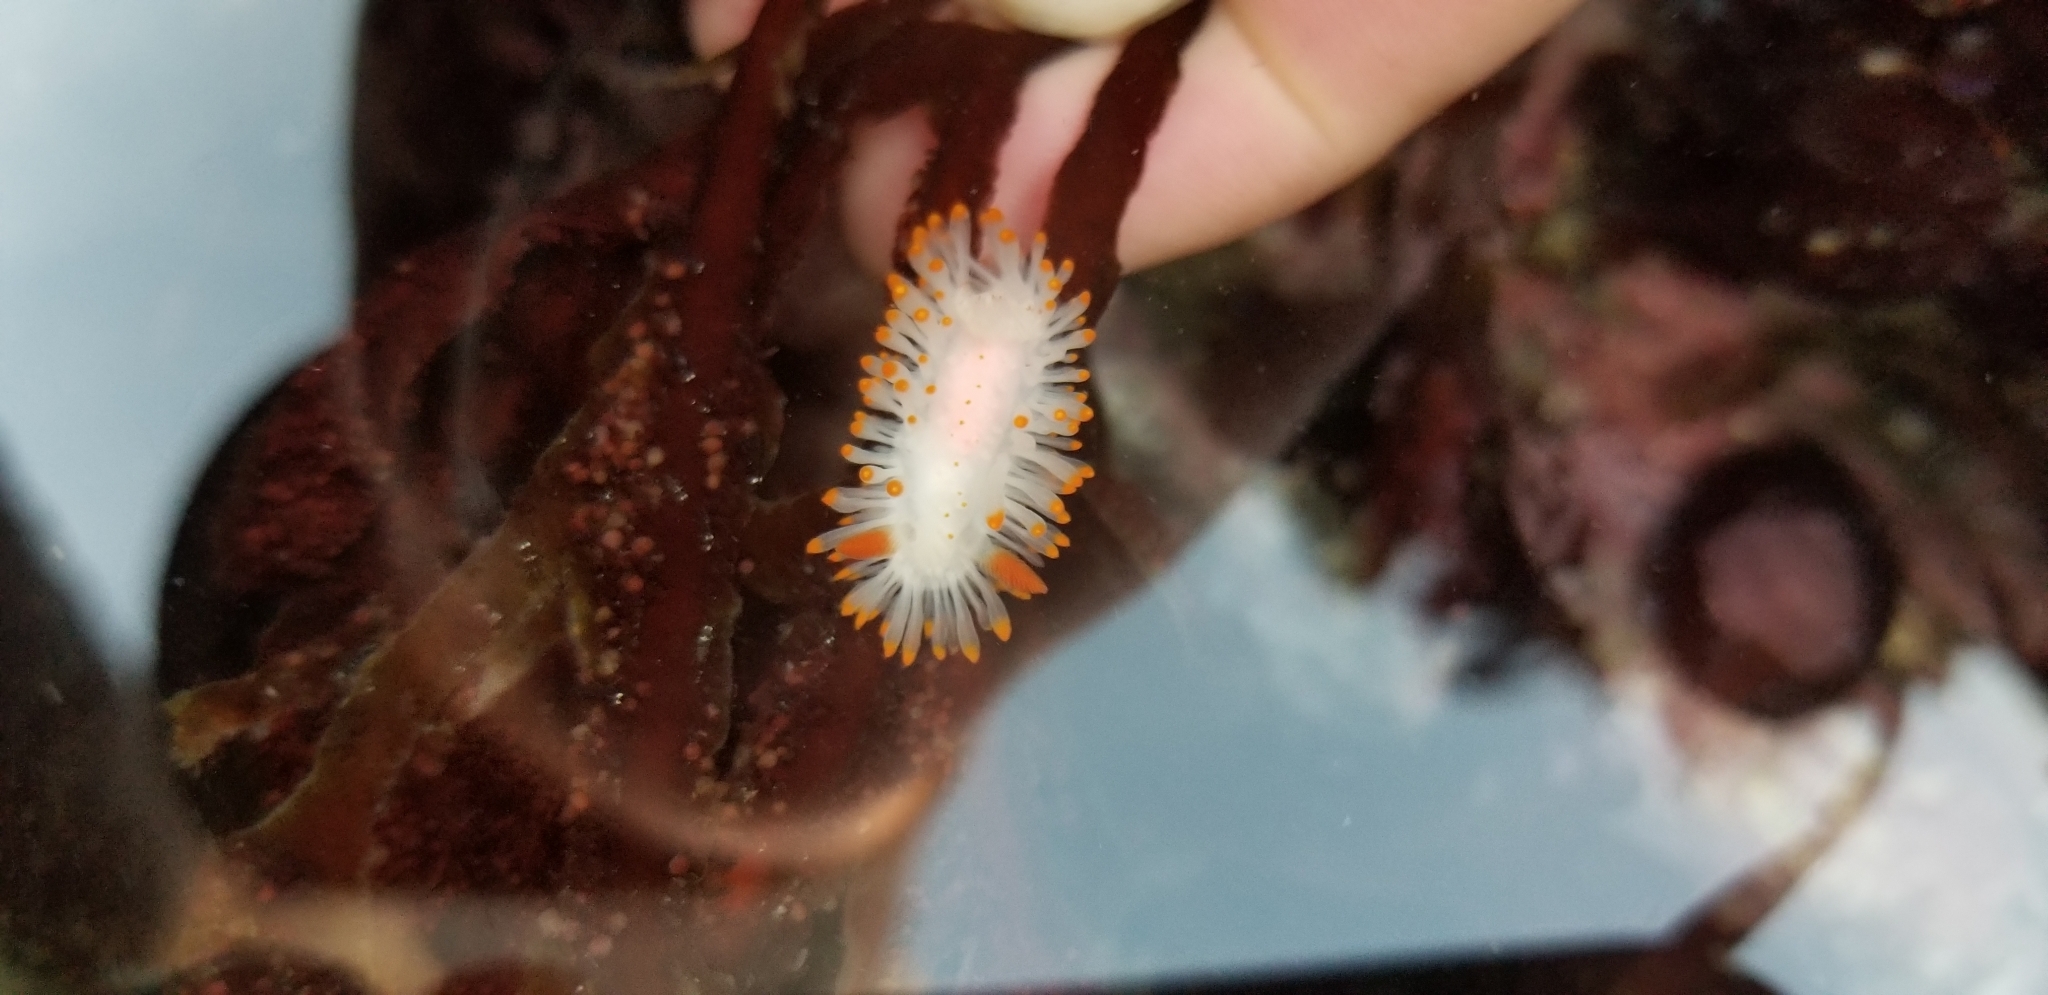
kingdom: Animalia
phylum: Mollusca
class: Gastropoda
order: Nudibranchia
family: Polyceridae
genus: Limacia
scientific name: Limacia cockerelli
